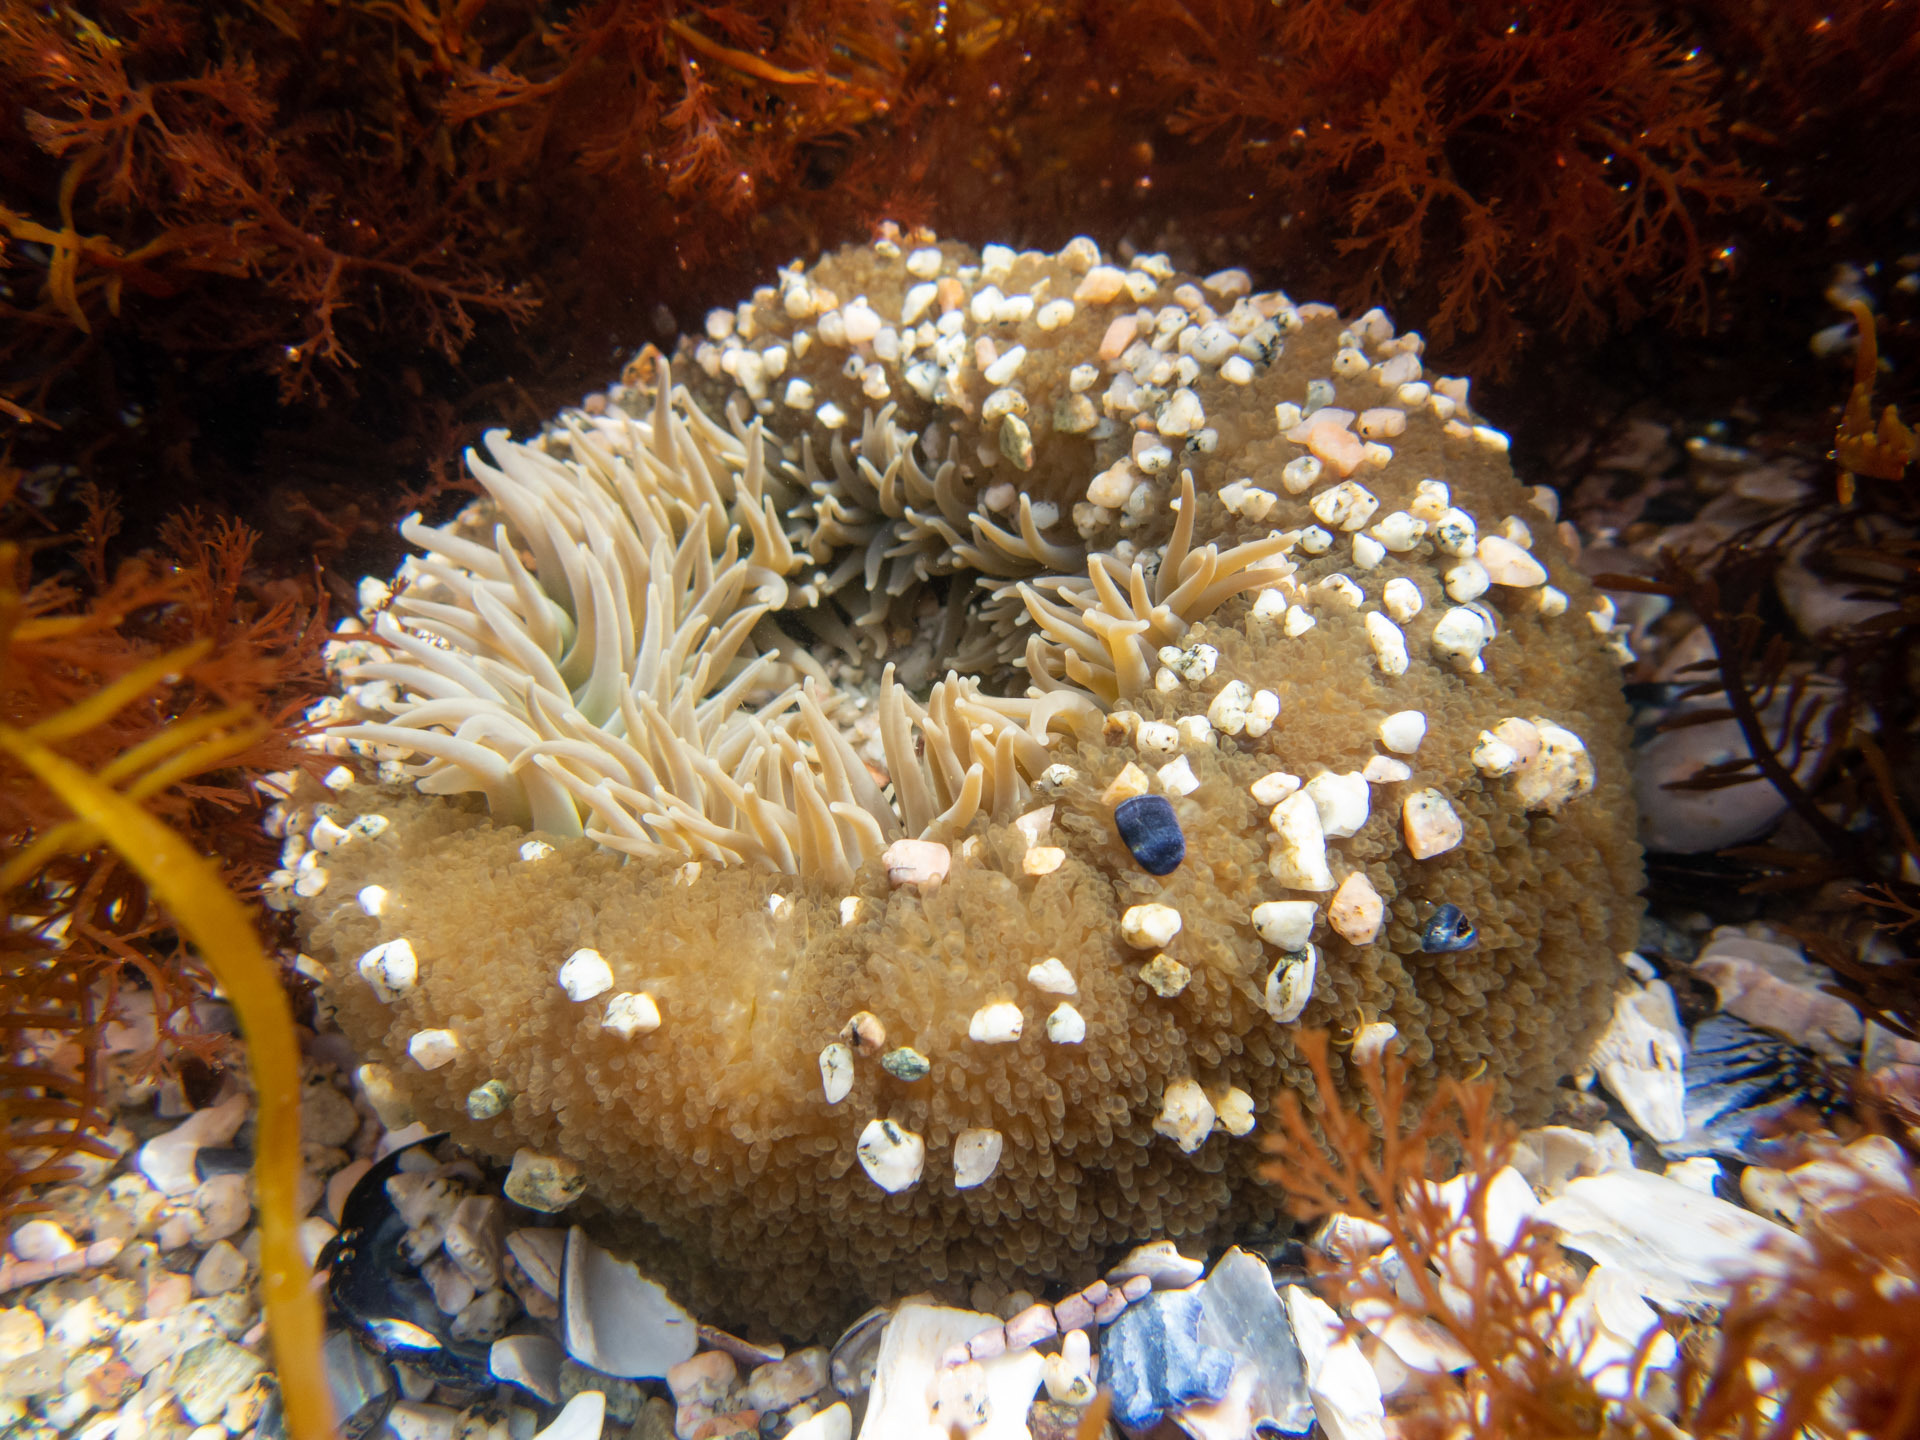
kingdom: Animalia
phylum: Cnidaria
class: Anthozoa
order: Actiniaria
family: Actiniidae
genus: Anthopleura
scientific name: Anthopleura xanthogrammica
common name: Giant green anemone
